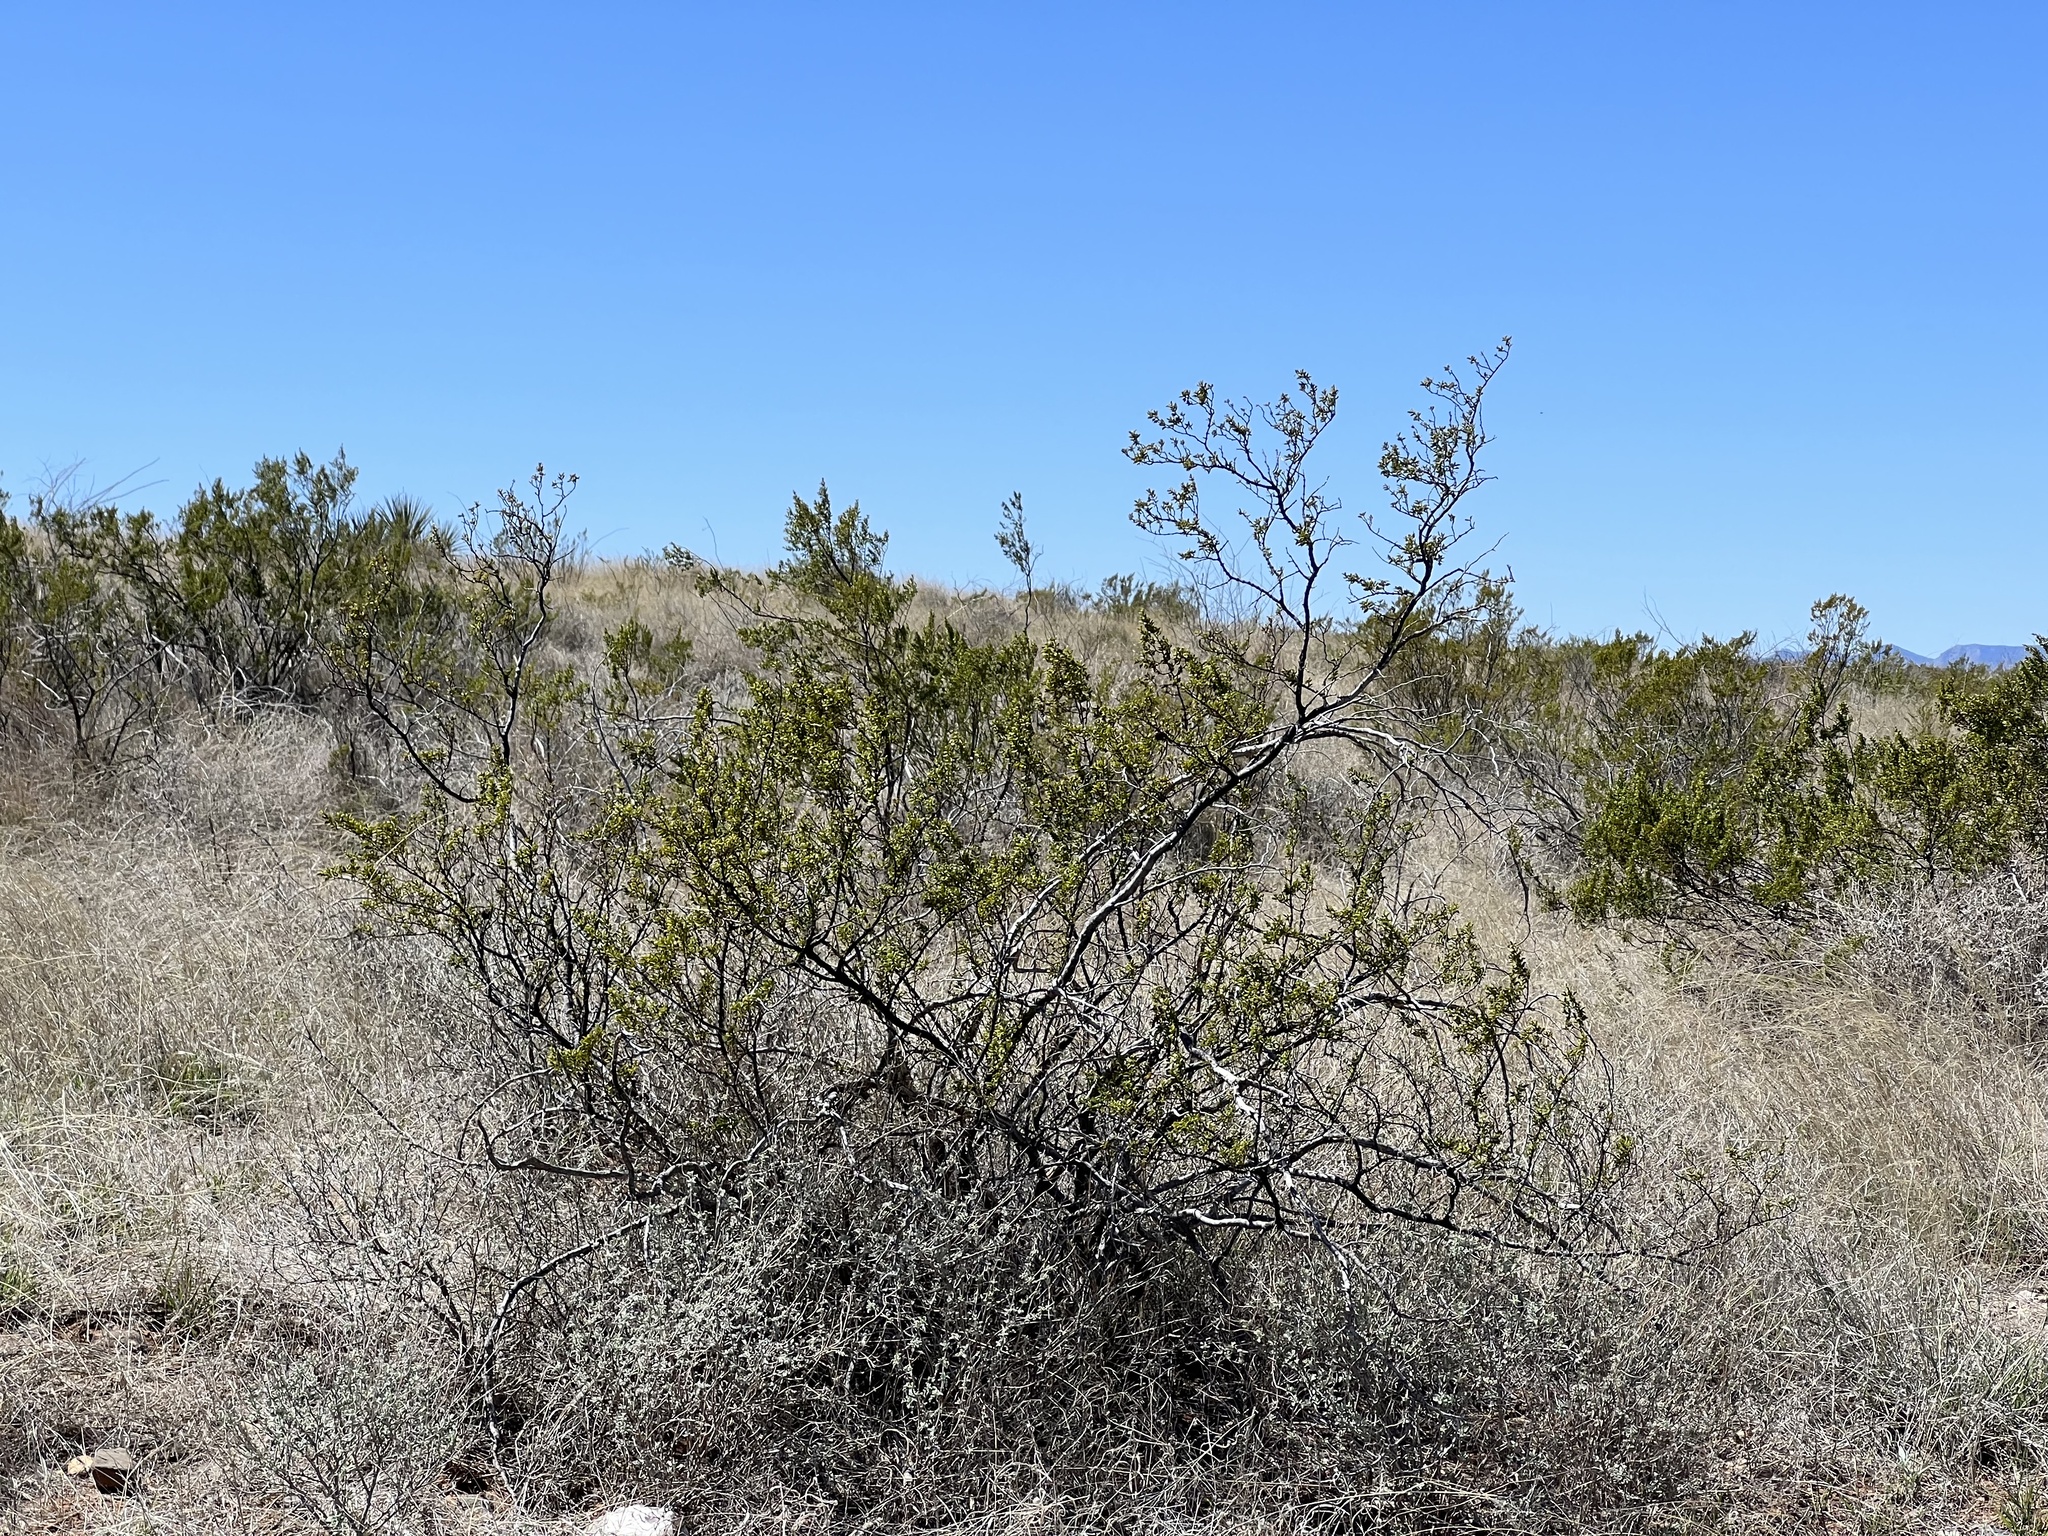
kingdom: Plantae
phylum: Tracheophyta
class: Magnoliopsida
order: Zygophyllales
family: Zygophyllaceae
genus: Larrea
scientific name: Larrea tridentata
